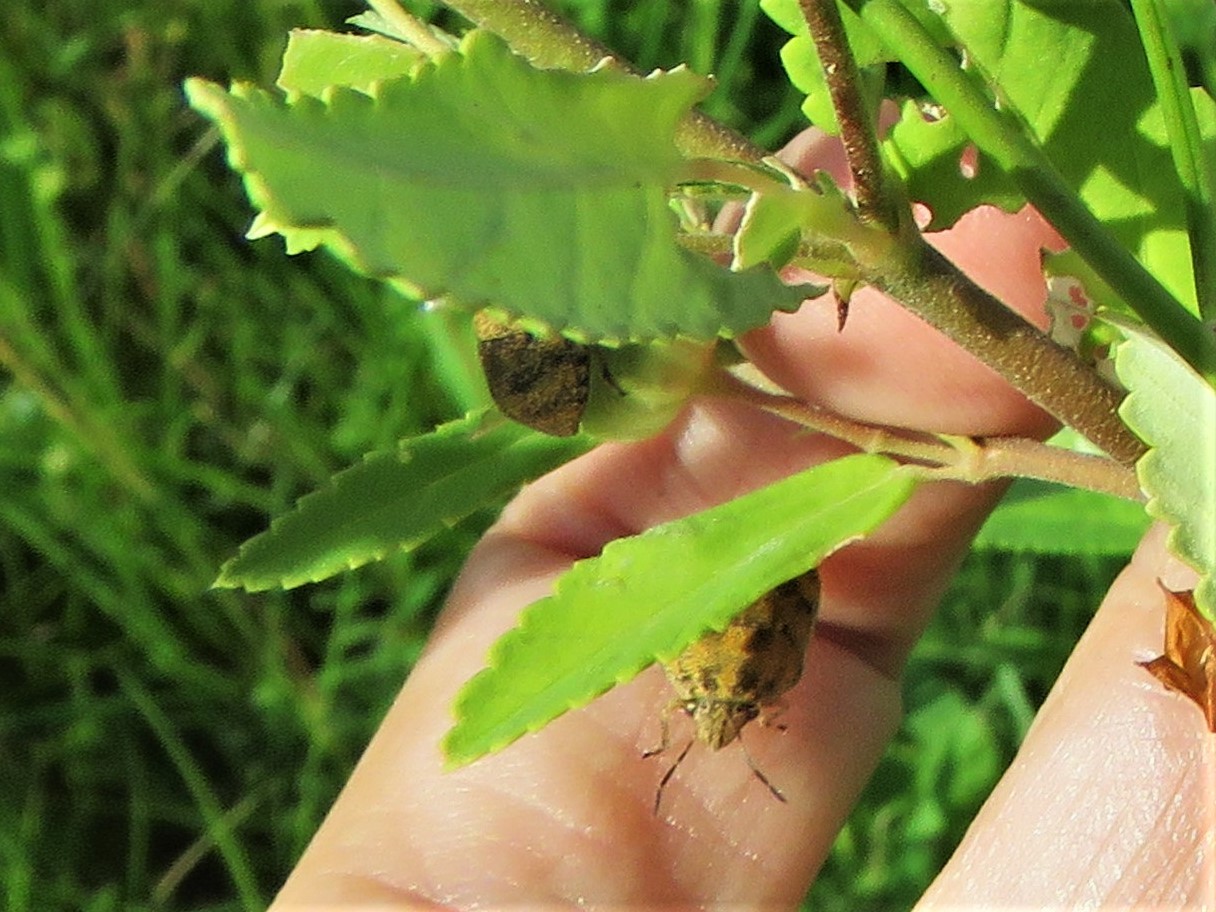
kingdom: Animalia
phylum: Arthropoda
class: Insecta
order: Hemiptera
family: Scutelleridae
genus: Orsilochides
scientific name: Orsilochides
